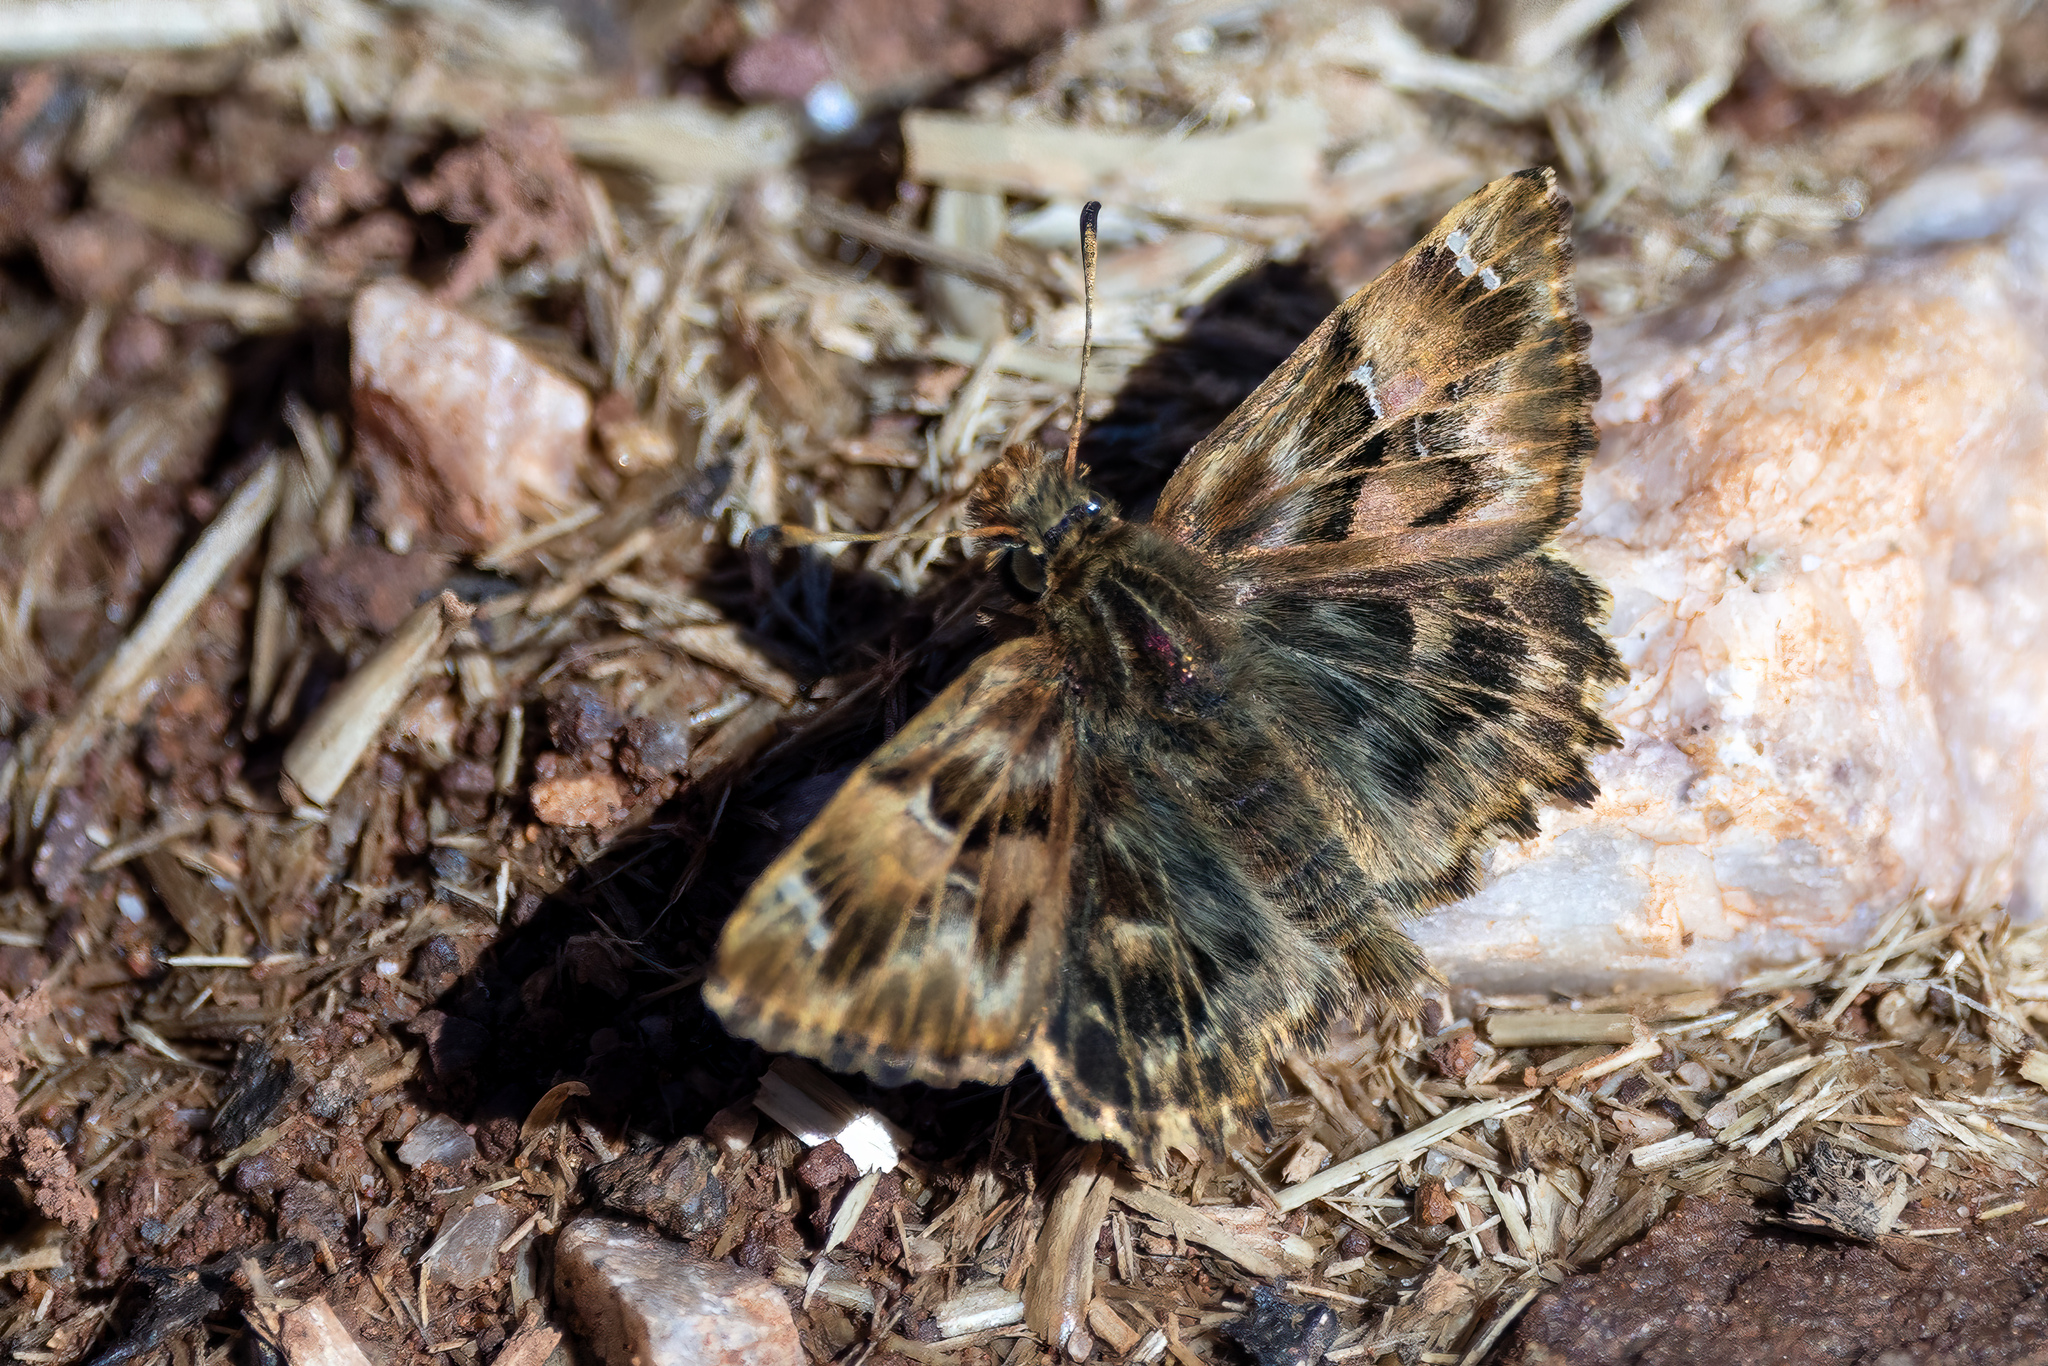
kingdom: Animalia
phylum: Arthropoda
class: Insecta
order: Lepidoptera
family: Hesperiidae
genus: Carcharodus
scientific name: Carcharodus alceae
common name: Mallow skipper
